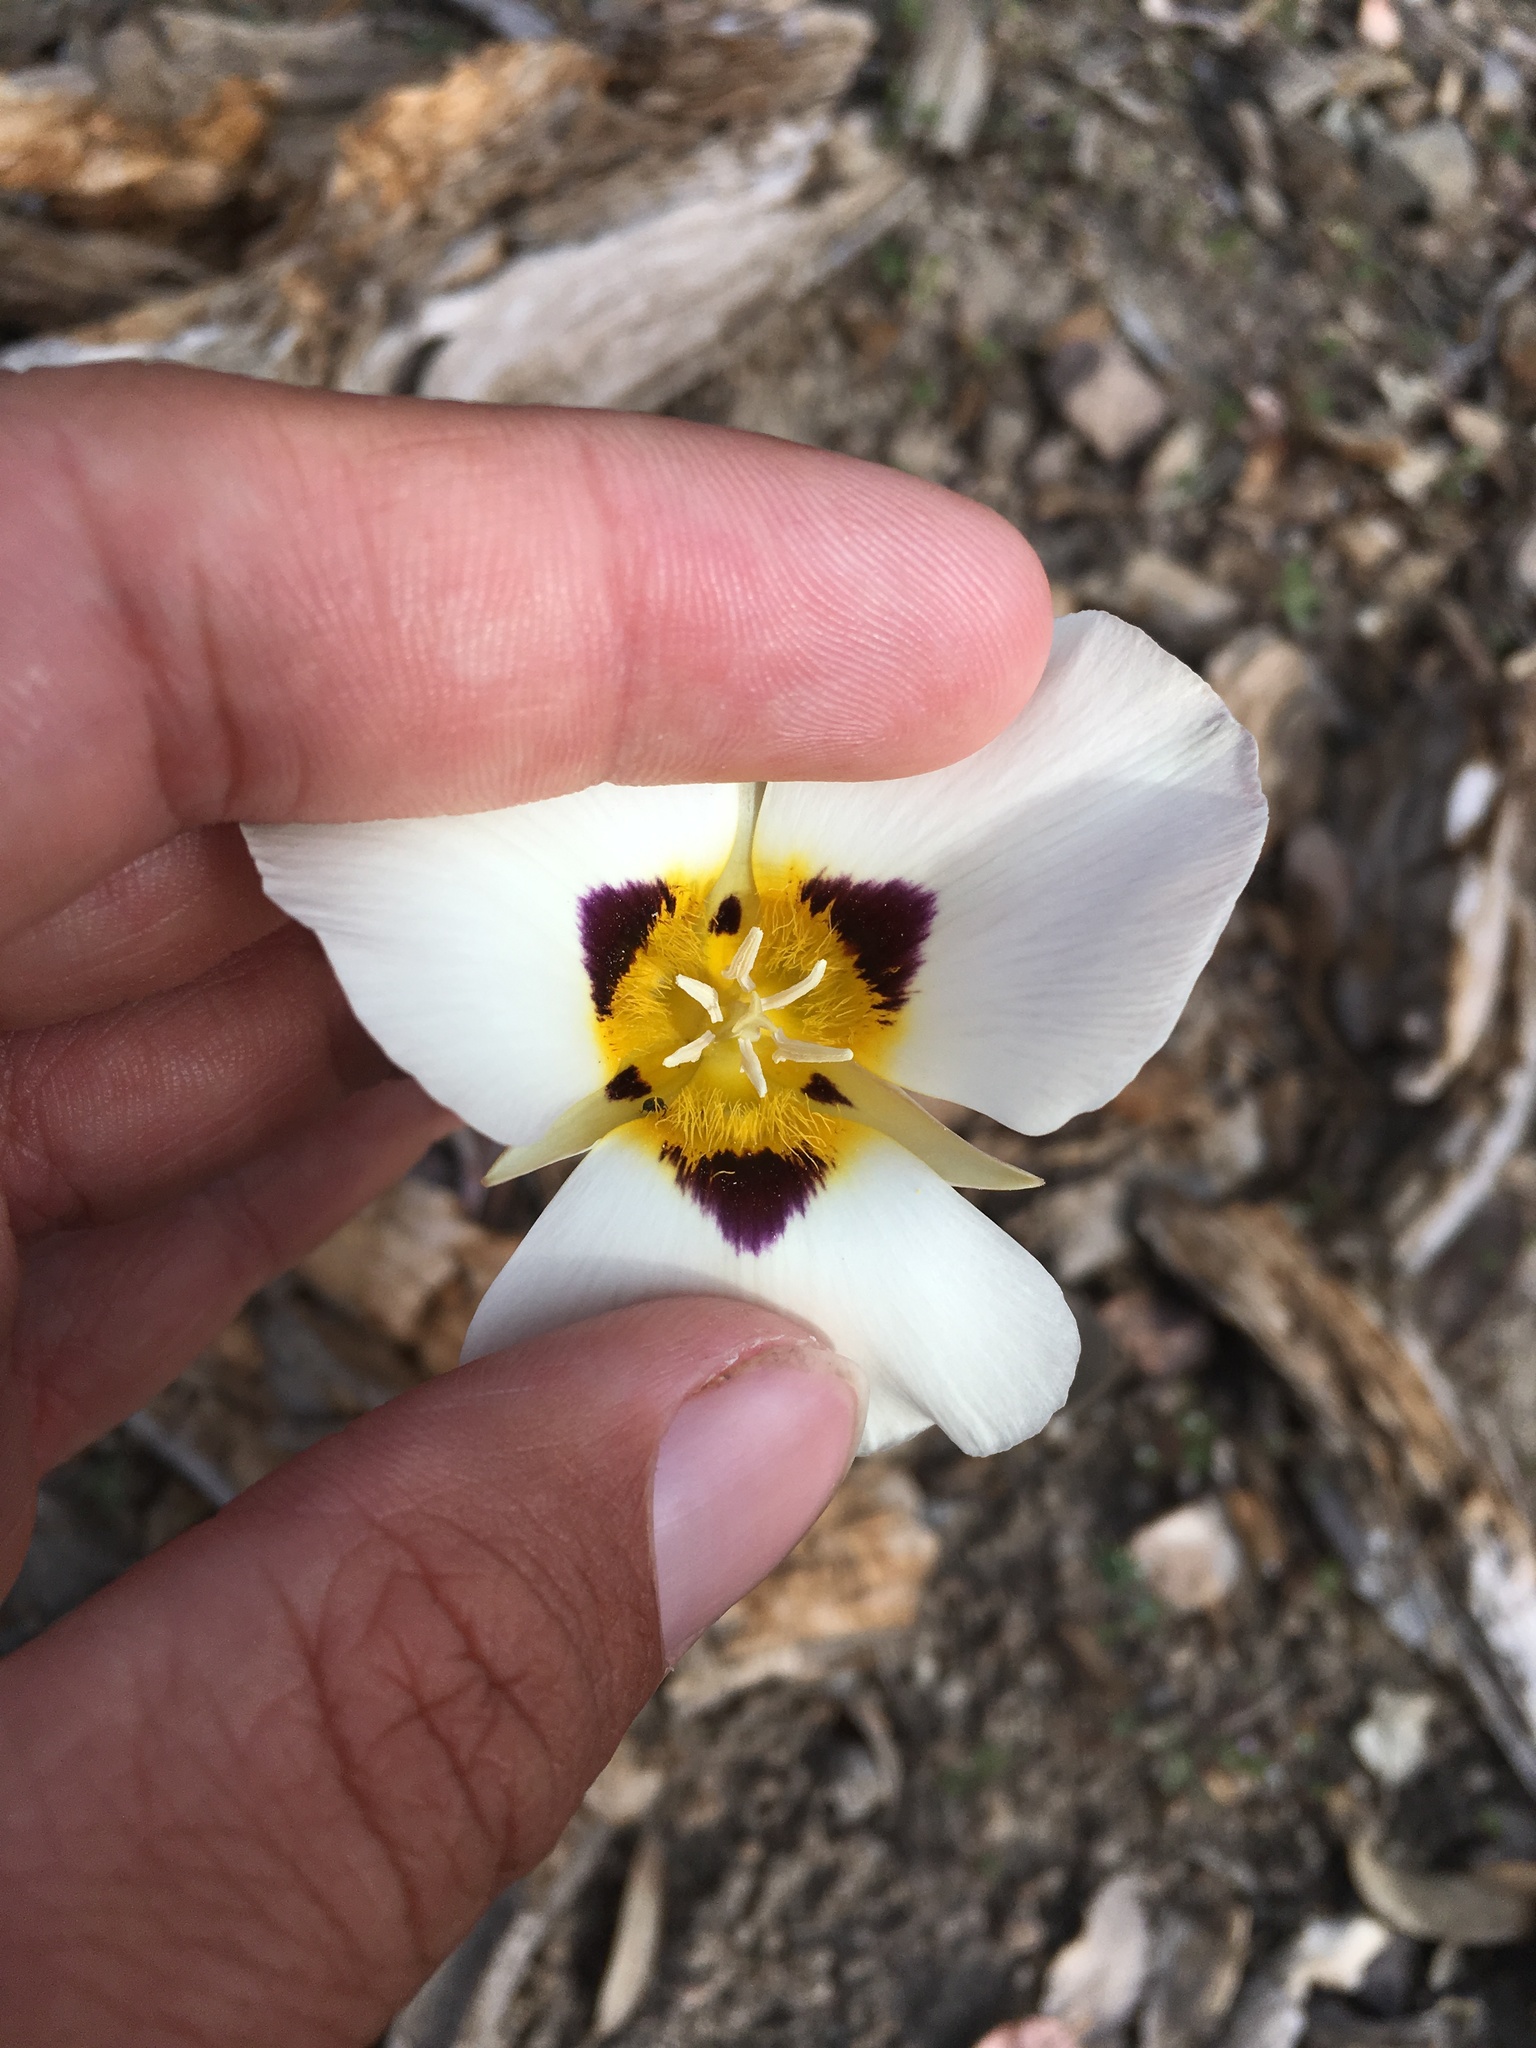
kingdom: Plantae
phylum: Tracheophyta
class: Liliopsida
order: Liliales
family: Liliaceae
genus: Calochortus
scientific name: Calochortus leichtlinii
